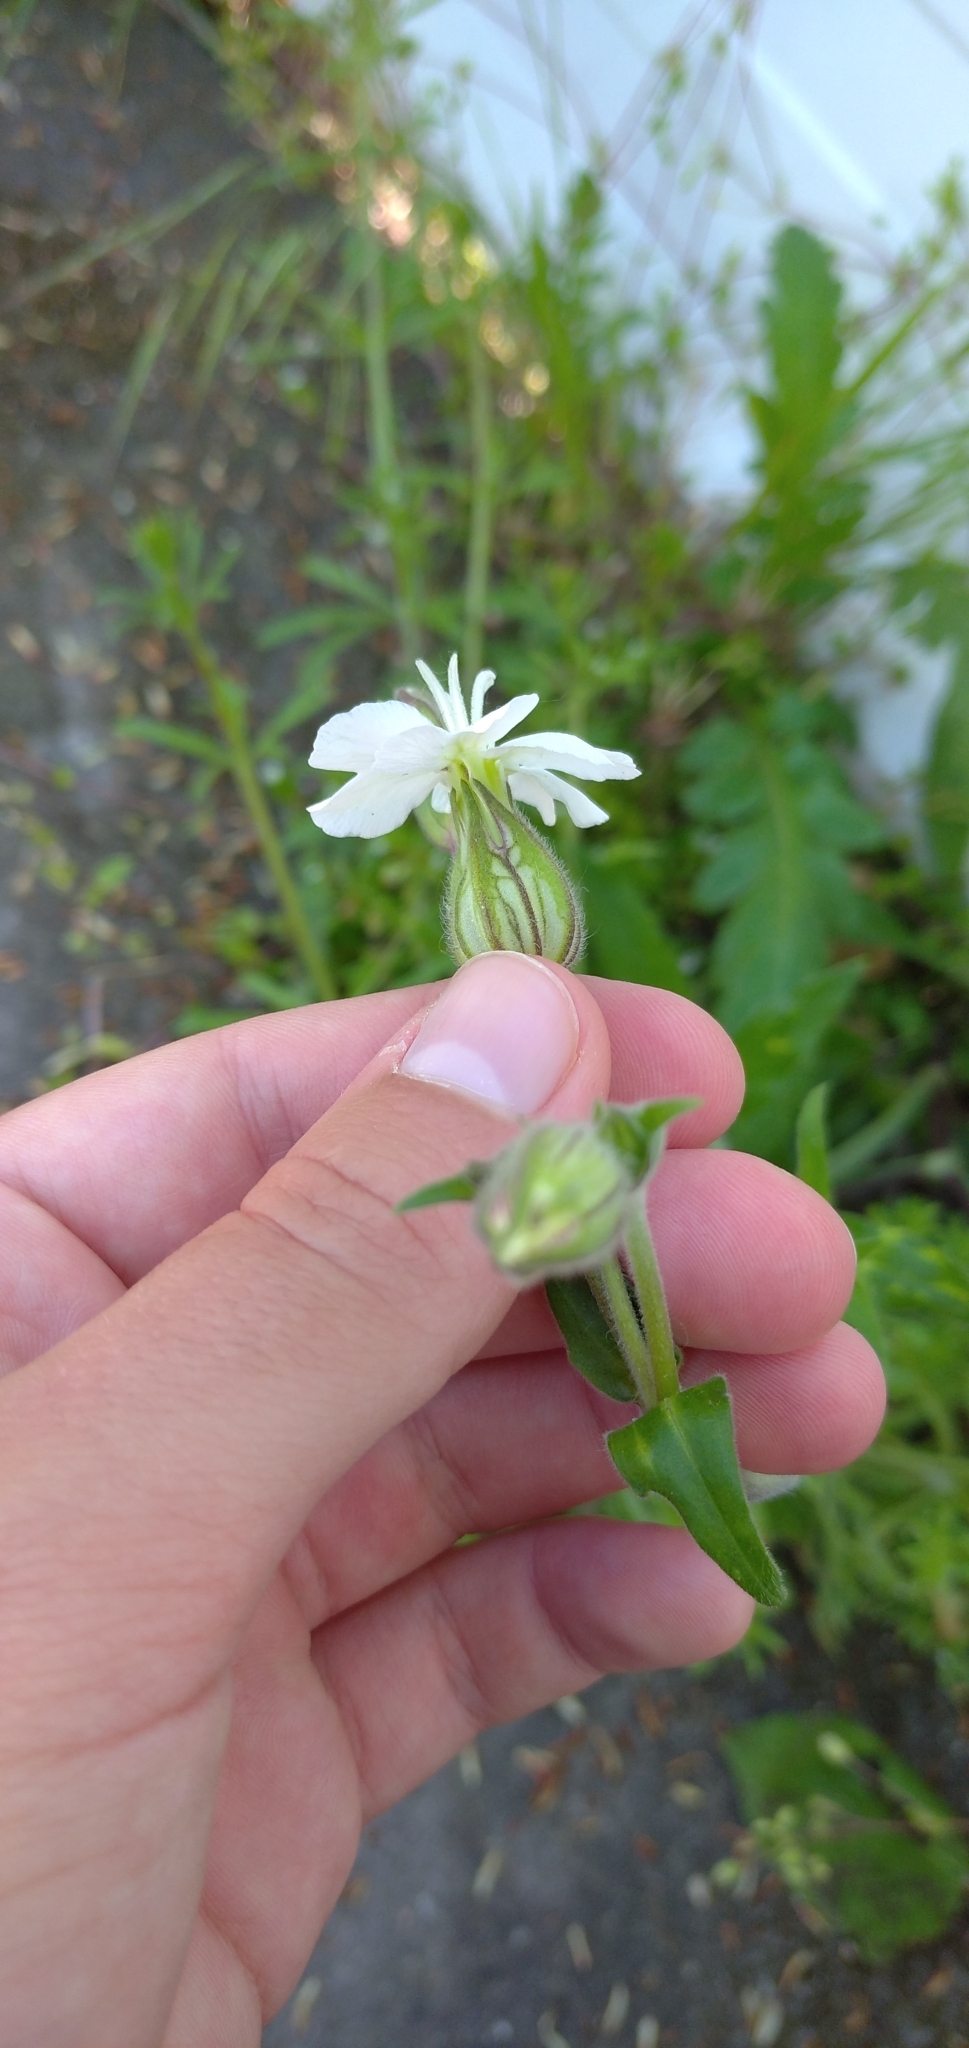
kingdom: Plantae
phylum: Tracheophyta
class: Magnoliopsida
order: Caryophyllales
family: Caryophyllaceae
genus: Silene
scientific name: Silene latifolia
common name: White campion
